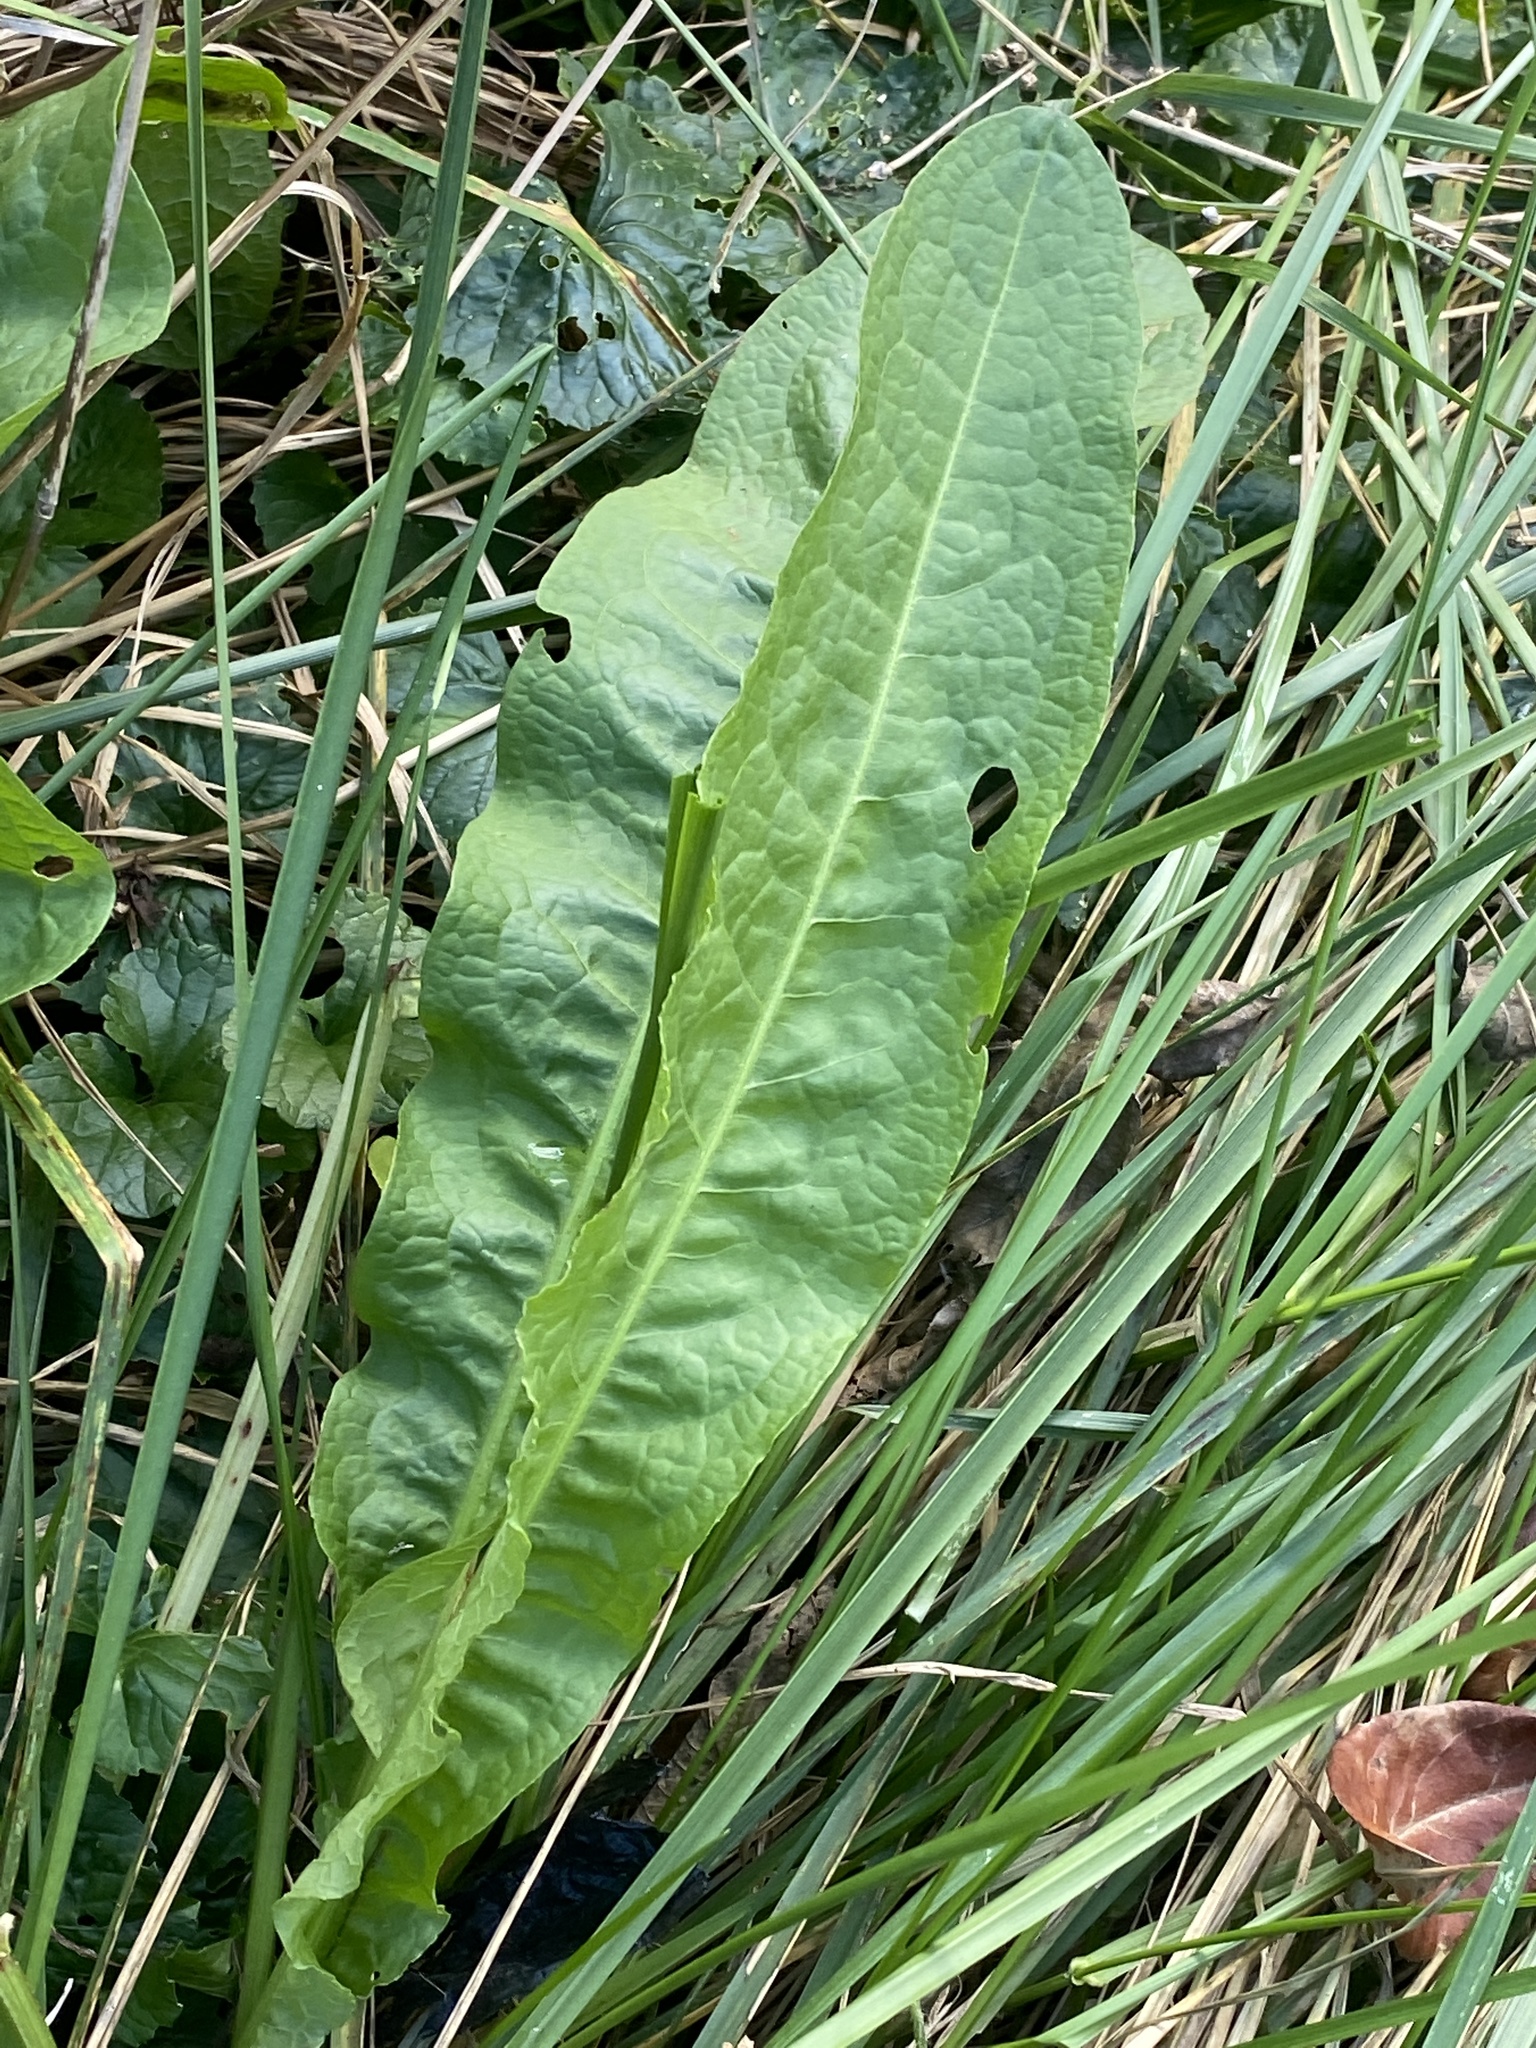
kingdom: Plantae
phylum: Tracheophyta
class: Magnoliopsida
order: Caryophyllales
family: Polygonaceae
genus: Rumex
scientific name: Rumex crispus
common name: Curled dock
